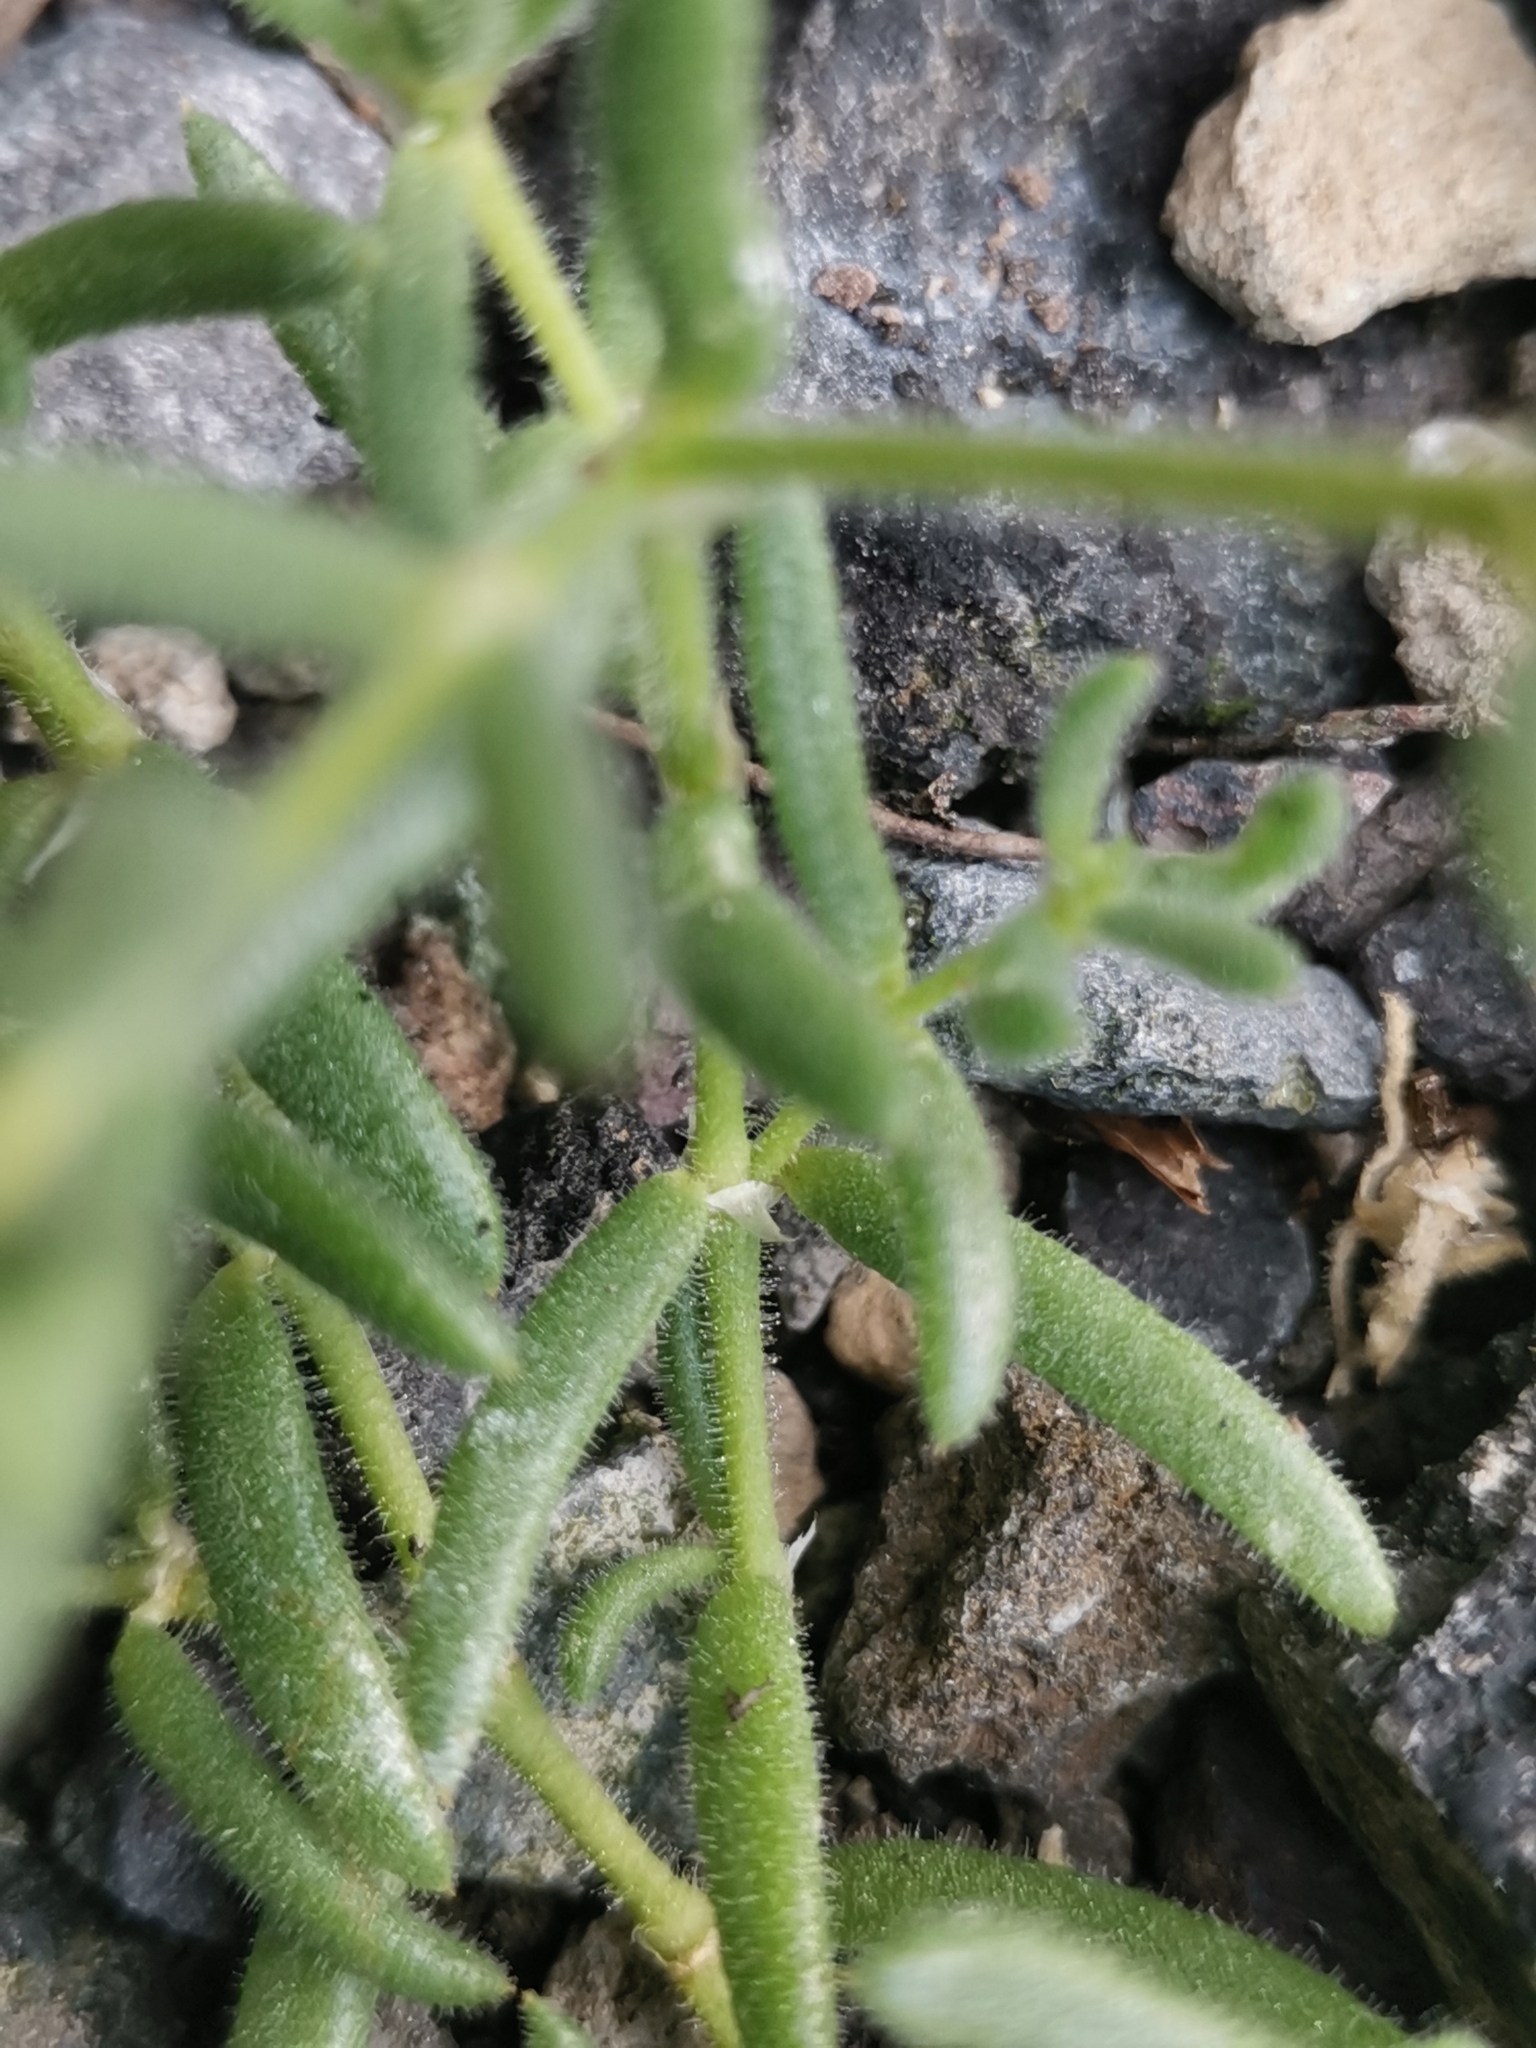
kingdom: Plantae
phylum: Tracheophyta
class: Magnoliopsida
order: Caryophyllales
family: Caryophyllaceae
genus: Spergularia
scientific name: Spergularia azorica
